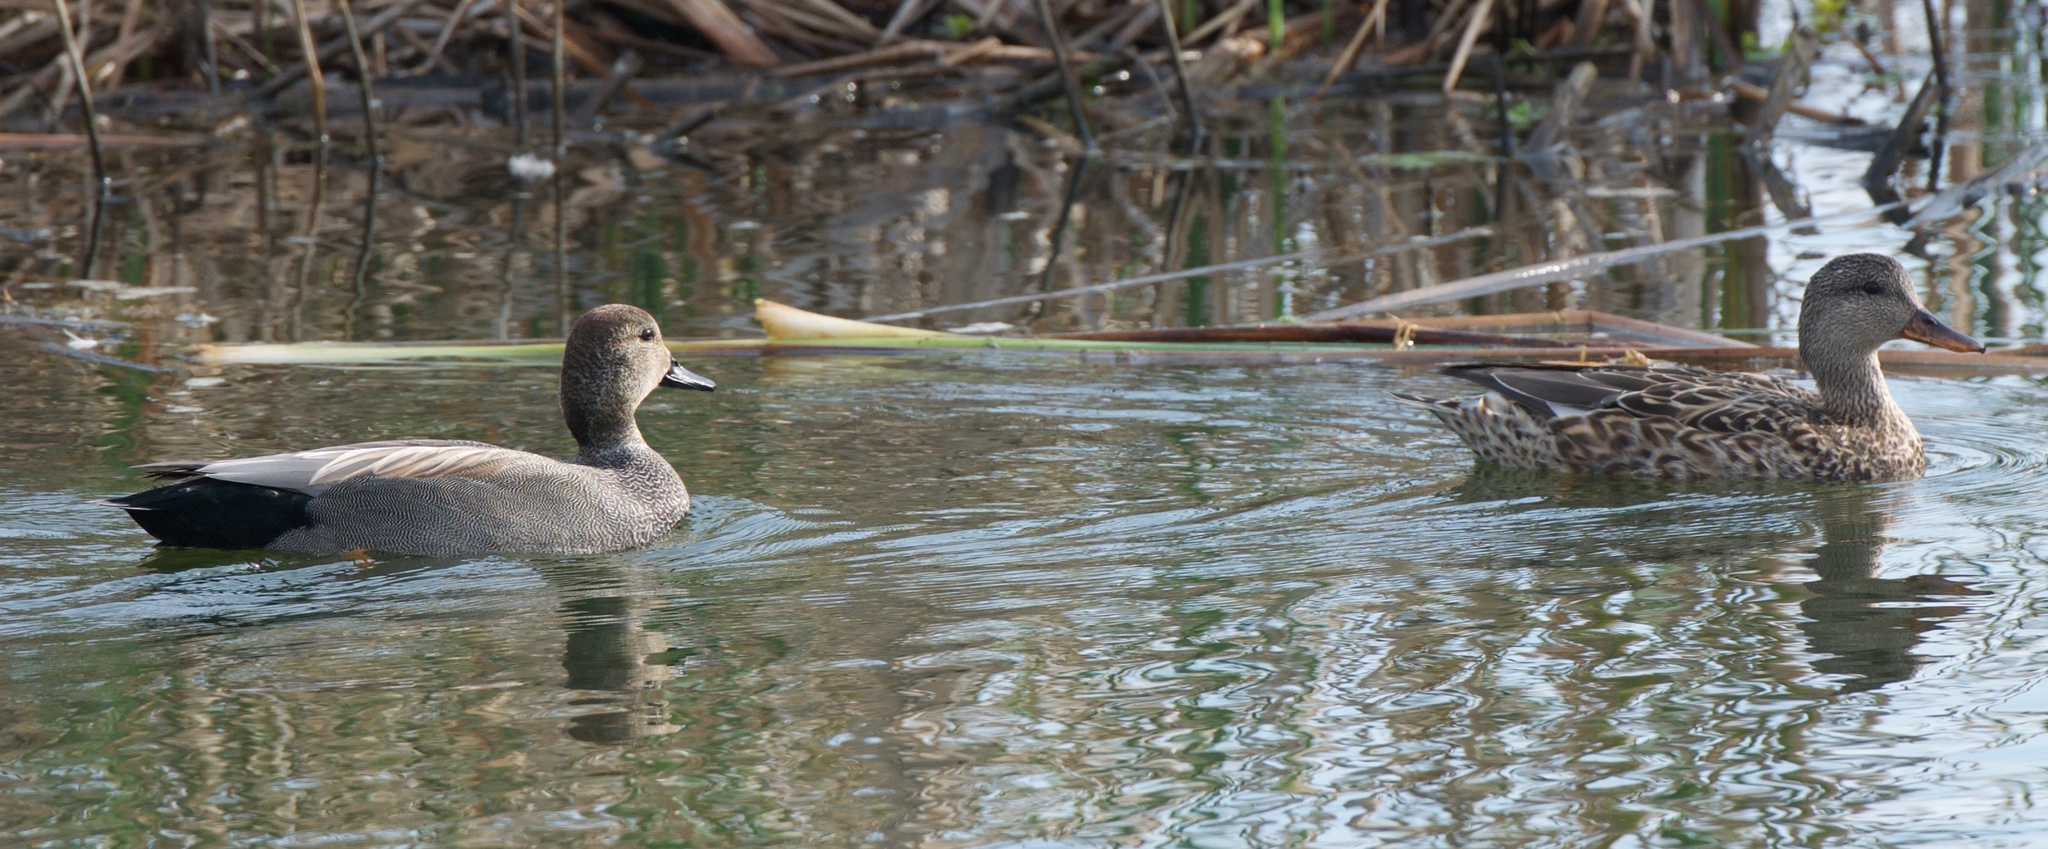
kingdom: Animalia
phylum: Chordata
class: Aves
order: Anseriformes
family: Anatidae
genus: Mareca
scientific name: Mareca strepera
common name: Gadwall
